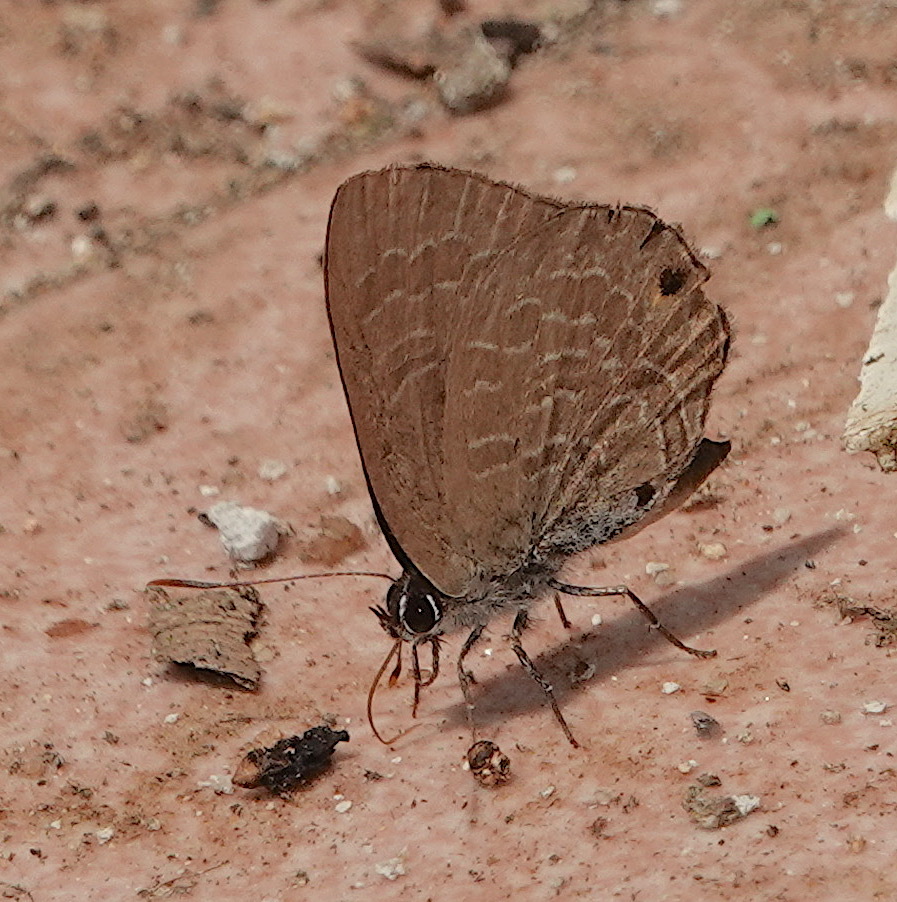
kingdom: Animalia
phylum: Arthropoda
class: Insecta
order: Lepidoptera
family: Lycaenidae
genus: Anthene
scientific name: Anthene emolus
